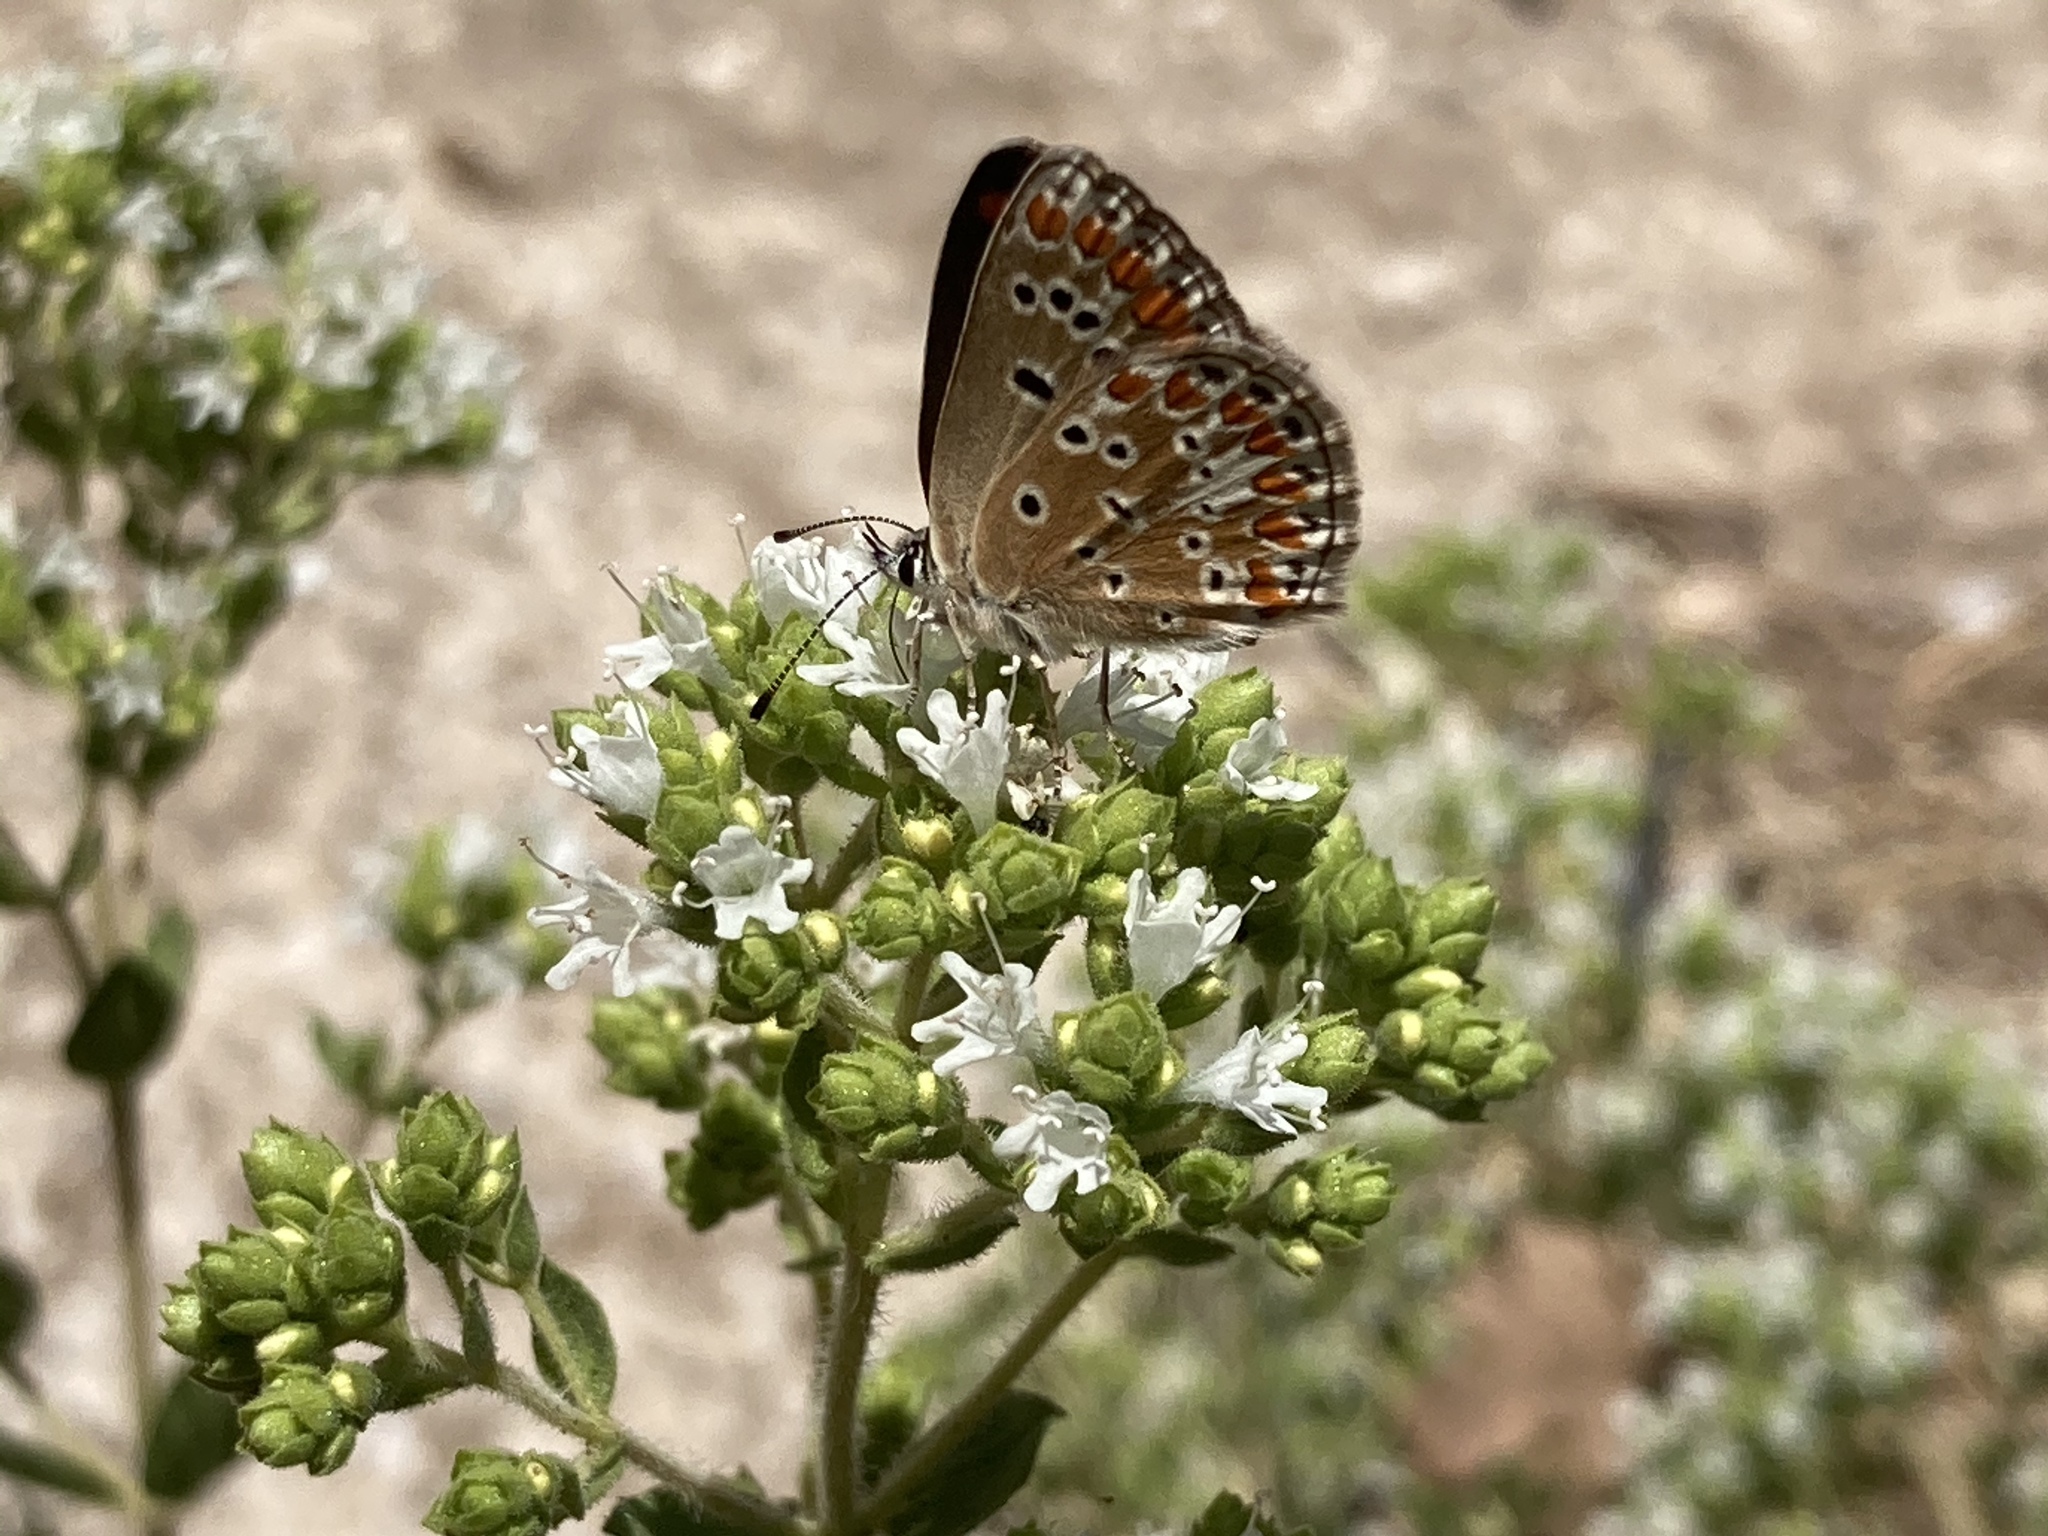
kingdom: Animalia
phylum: Arthropoda
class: Insecta
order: Lepidoptera
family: Lycaenidae
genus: Aricia
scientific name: Aricia agestis
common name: Brown argus
